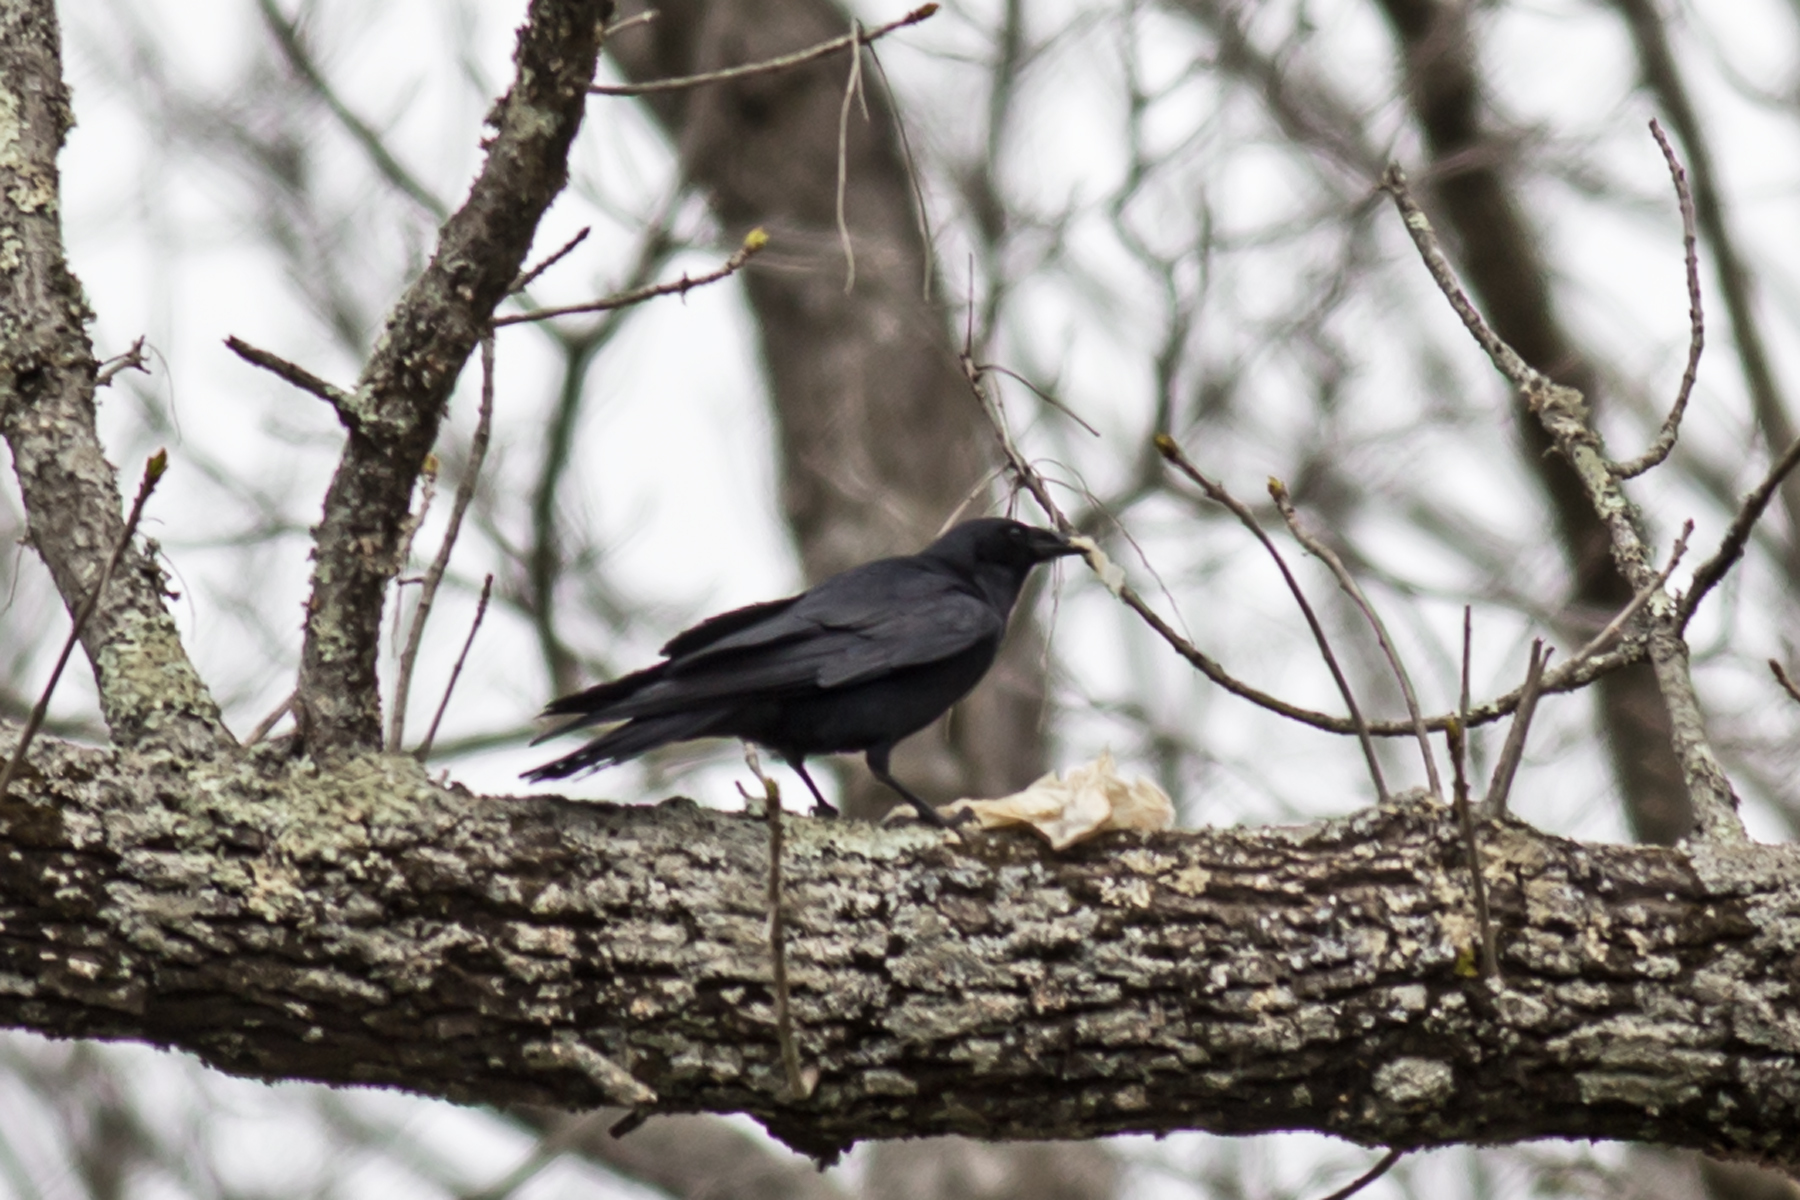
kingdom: Animalia
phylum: Chordata
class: Aves
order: Passeriformes
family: Corvidae
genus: Corvus
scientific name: Corvus ossifragus
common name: Fish crow
